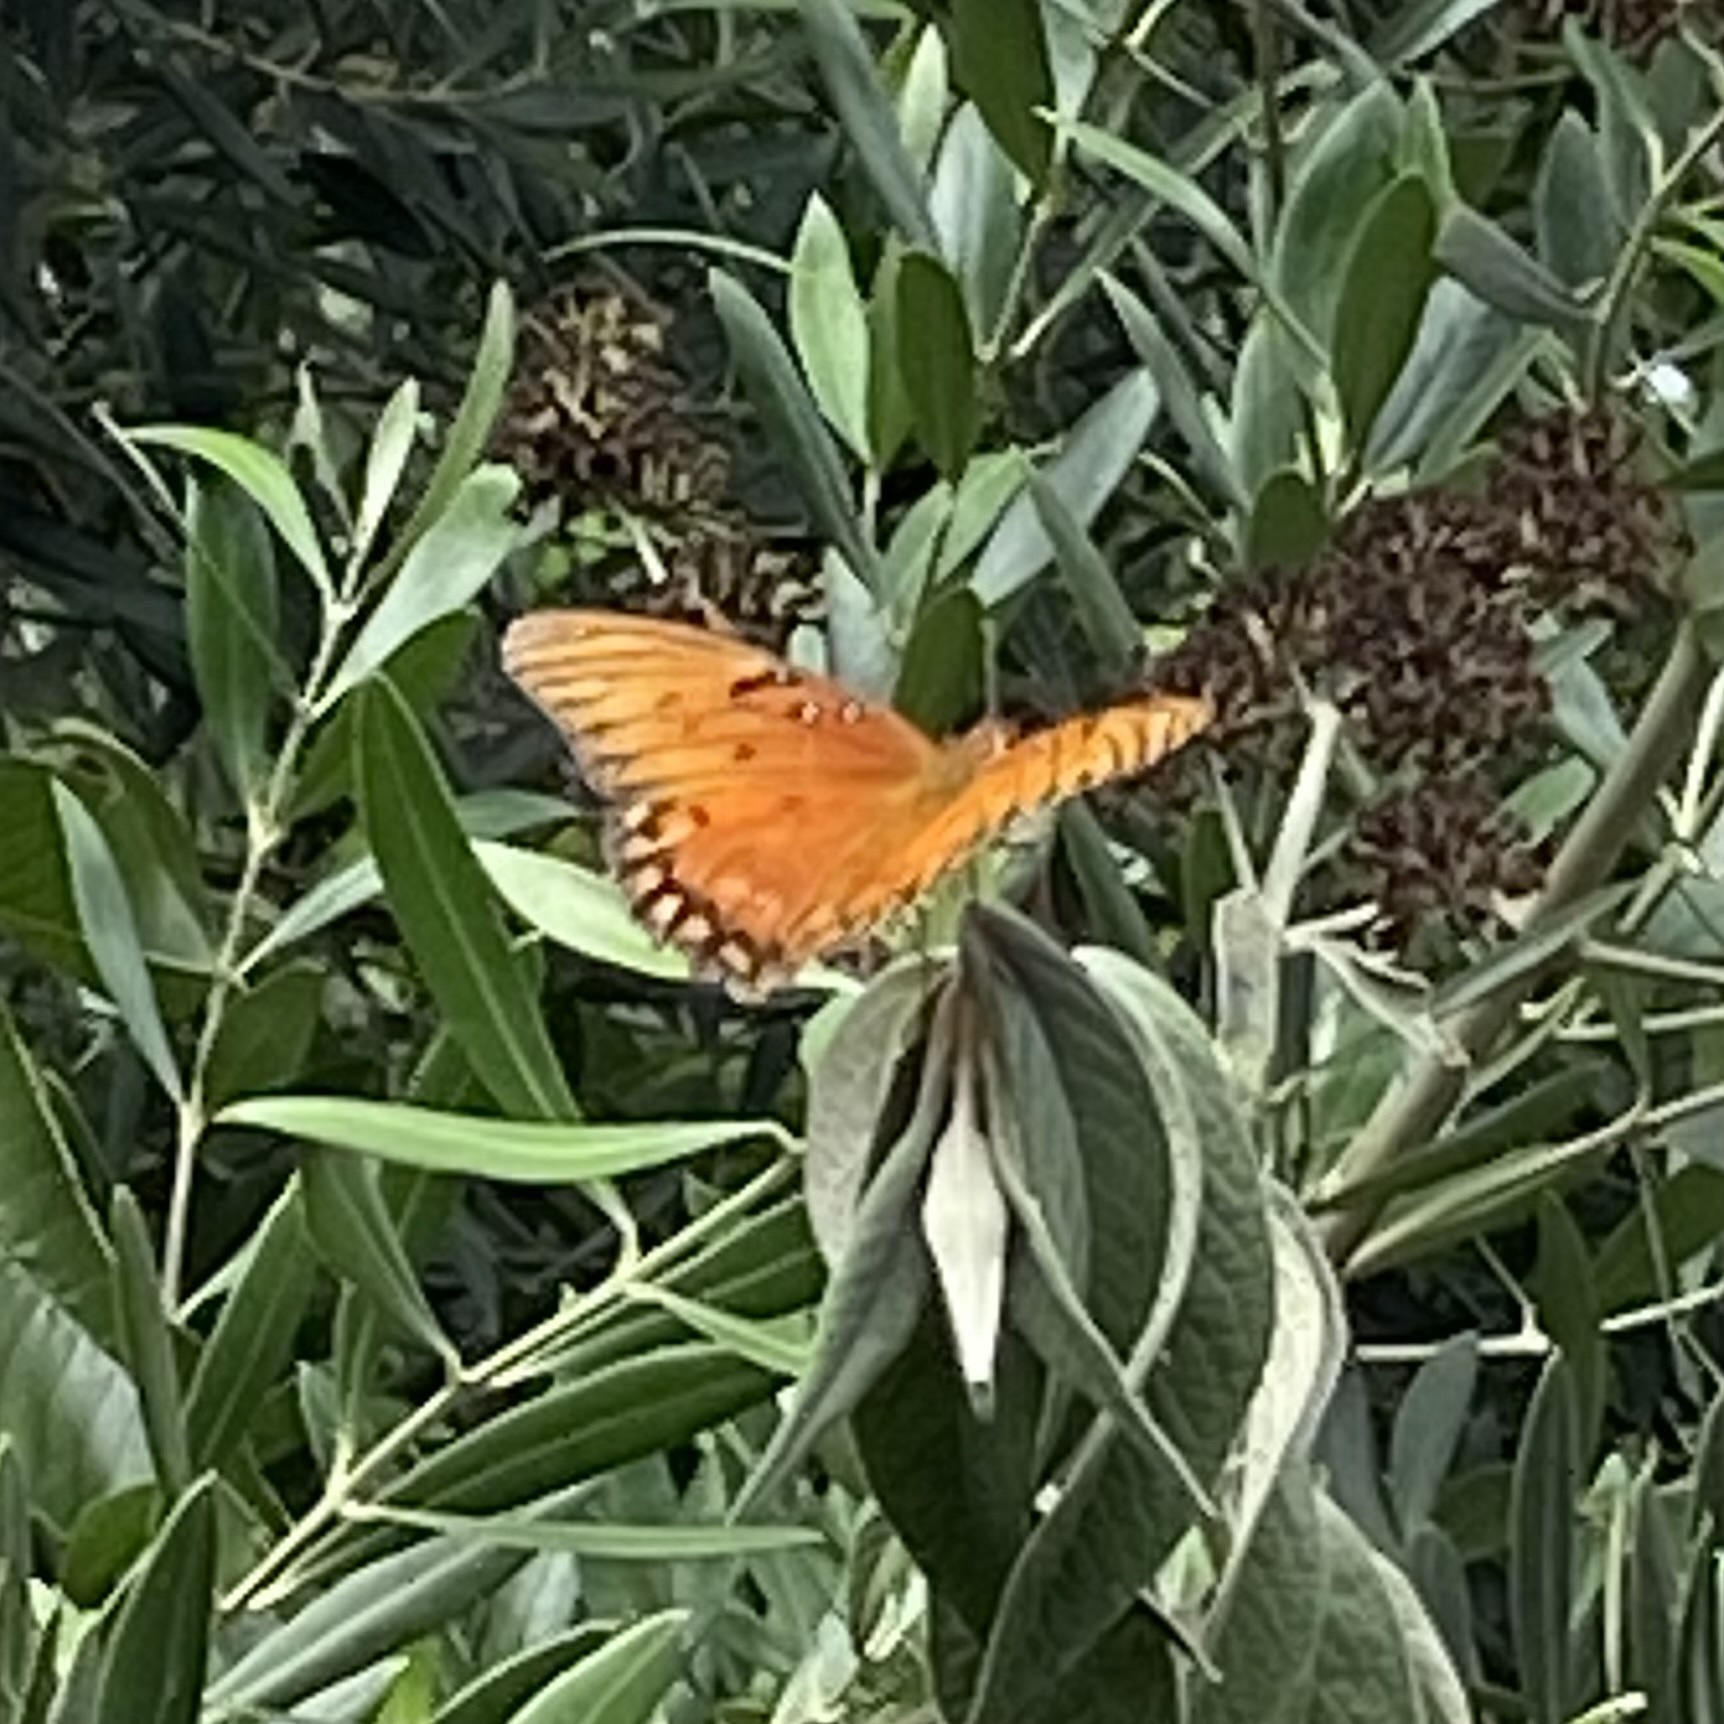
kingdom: Animalia
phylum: Arthropoda
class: Insecta
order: Lepidoptera
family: Nymphalidae
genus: Dione
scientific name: Dione vanillae
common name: Gulf fritillary
